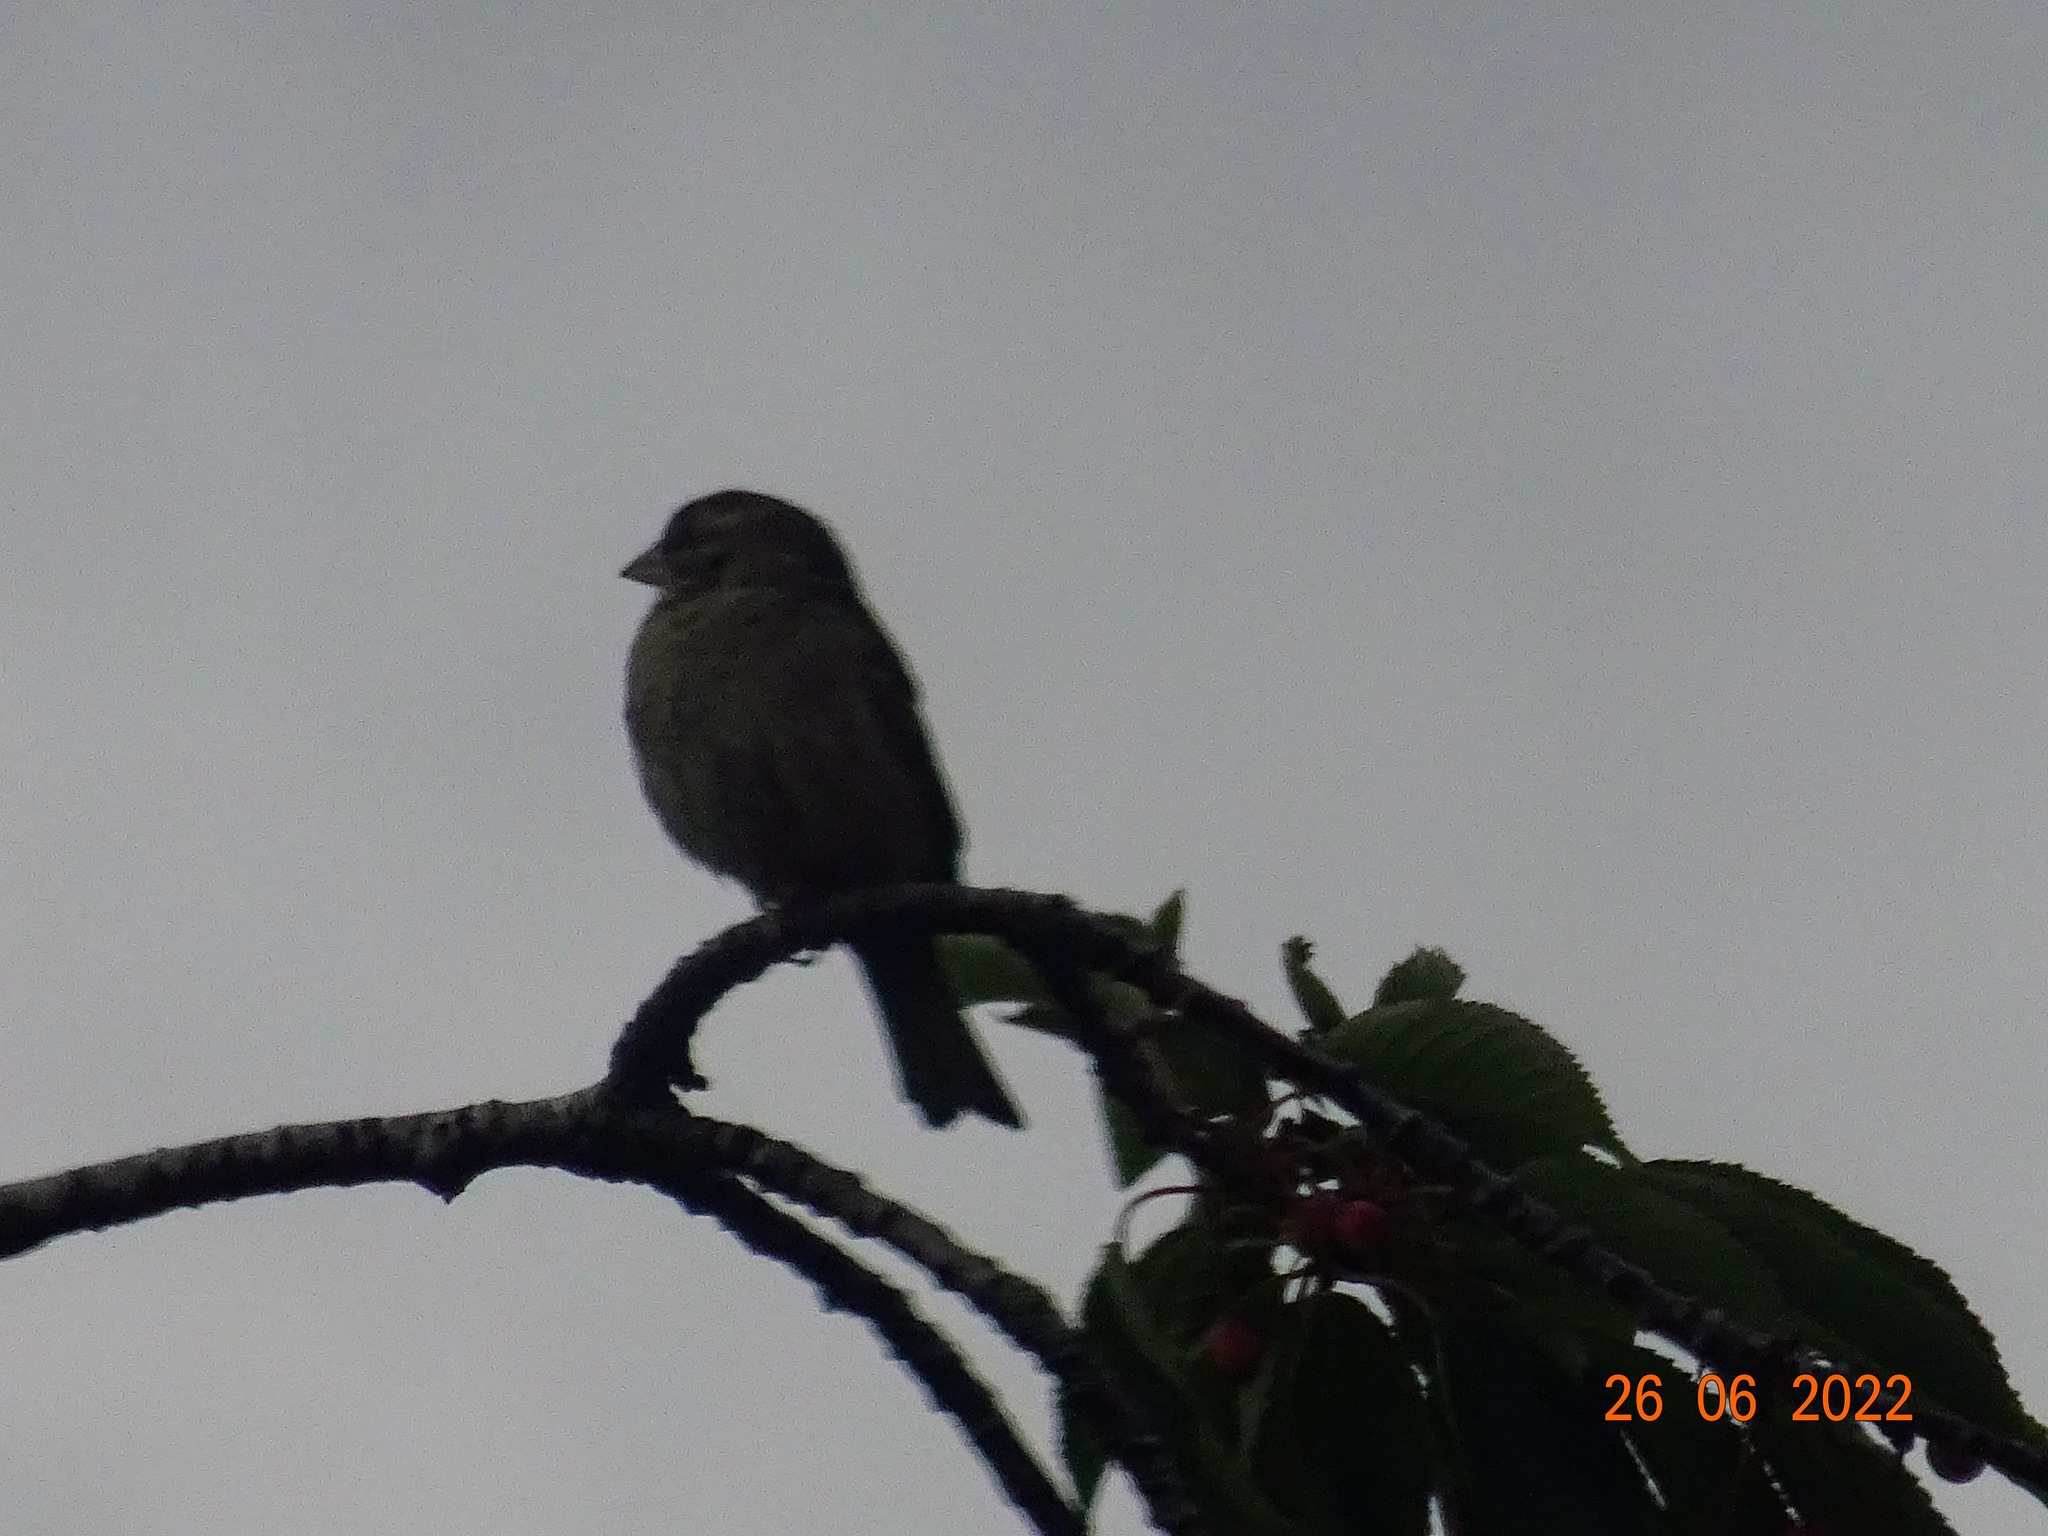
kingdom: Plantae
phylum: Tracheophyta
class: Liliopsida
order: Poales
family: Poaceae
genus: Chloris
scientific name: Chloris chloris
